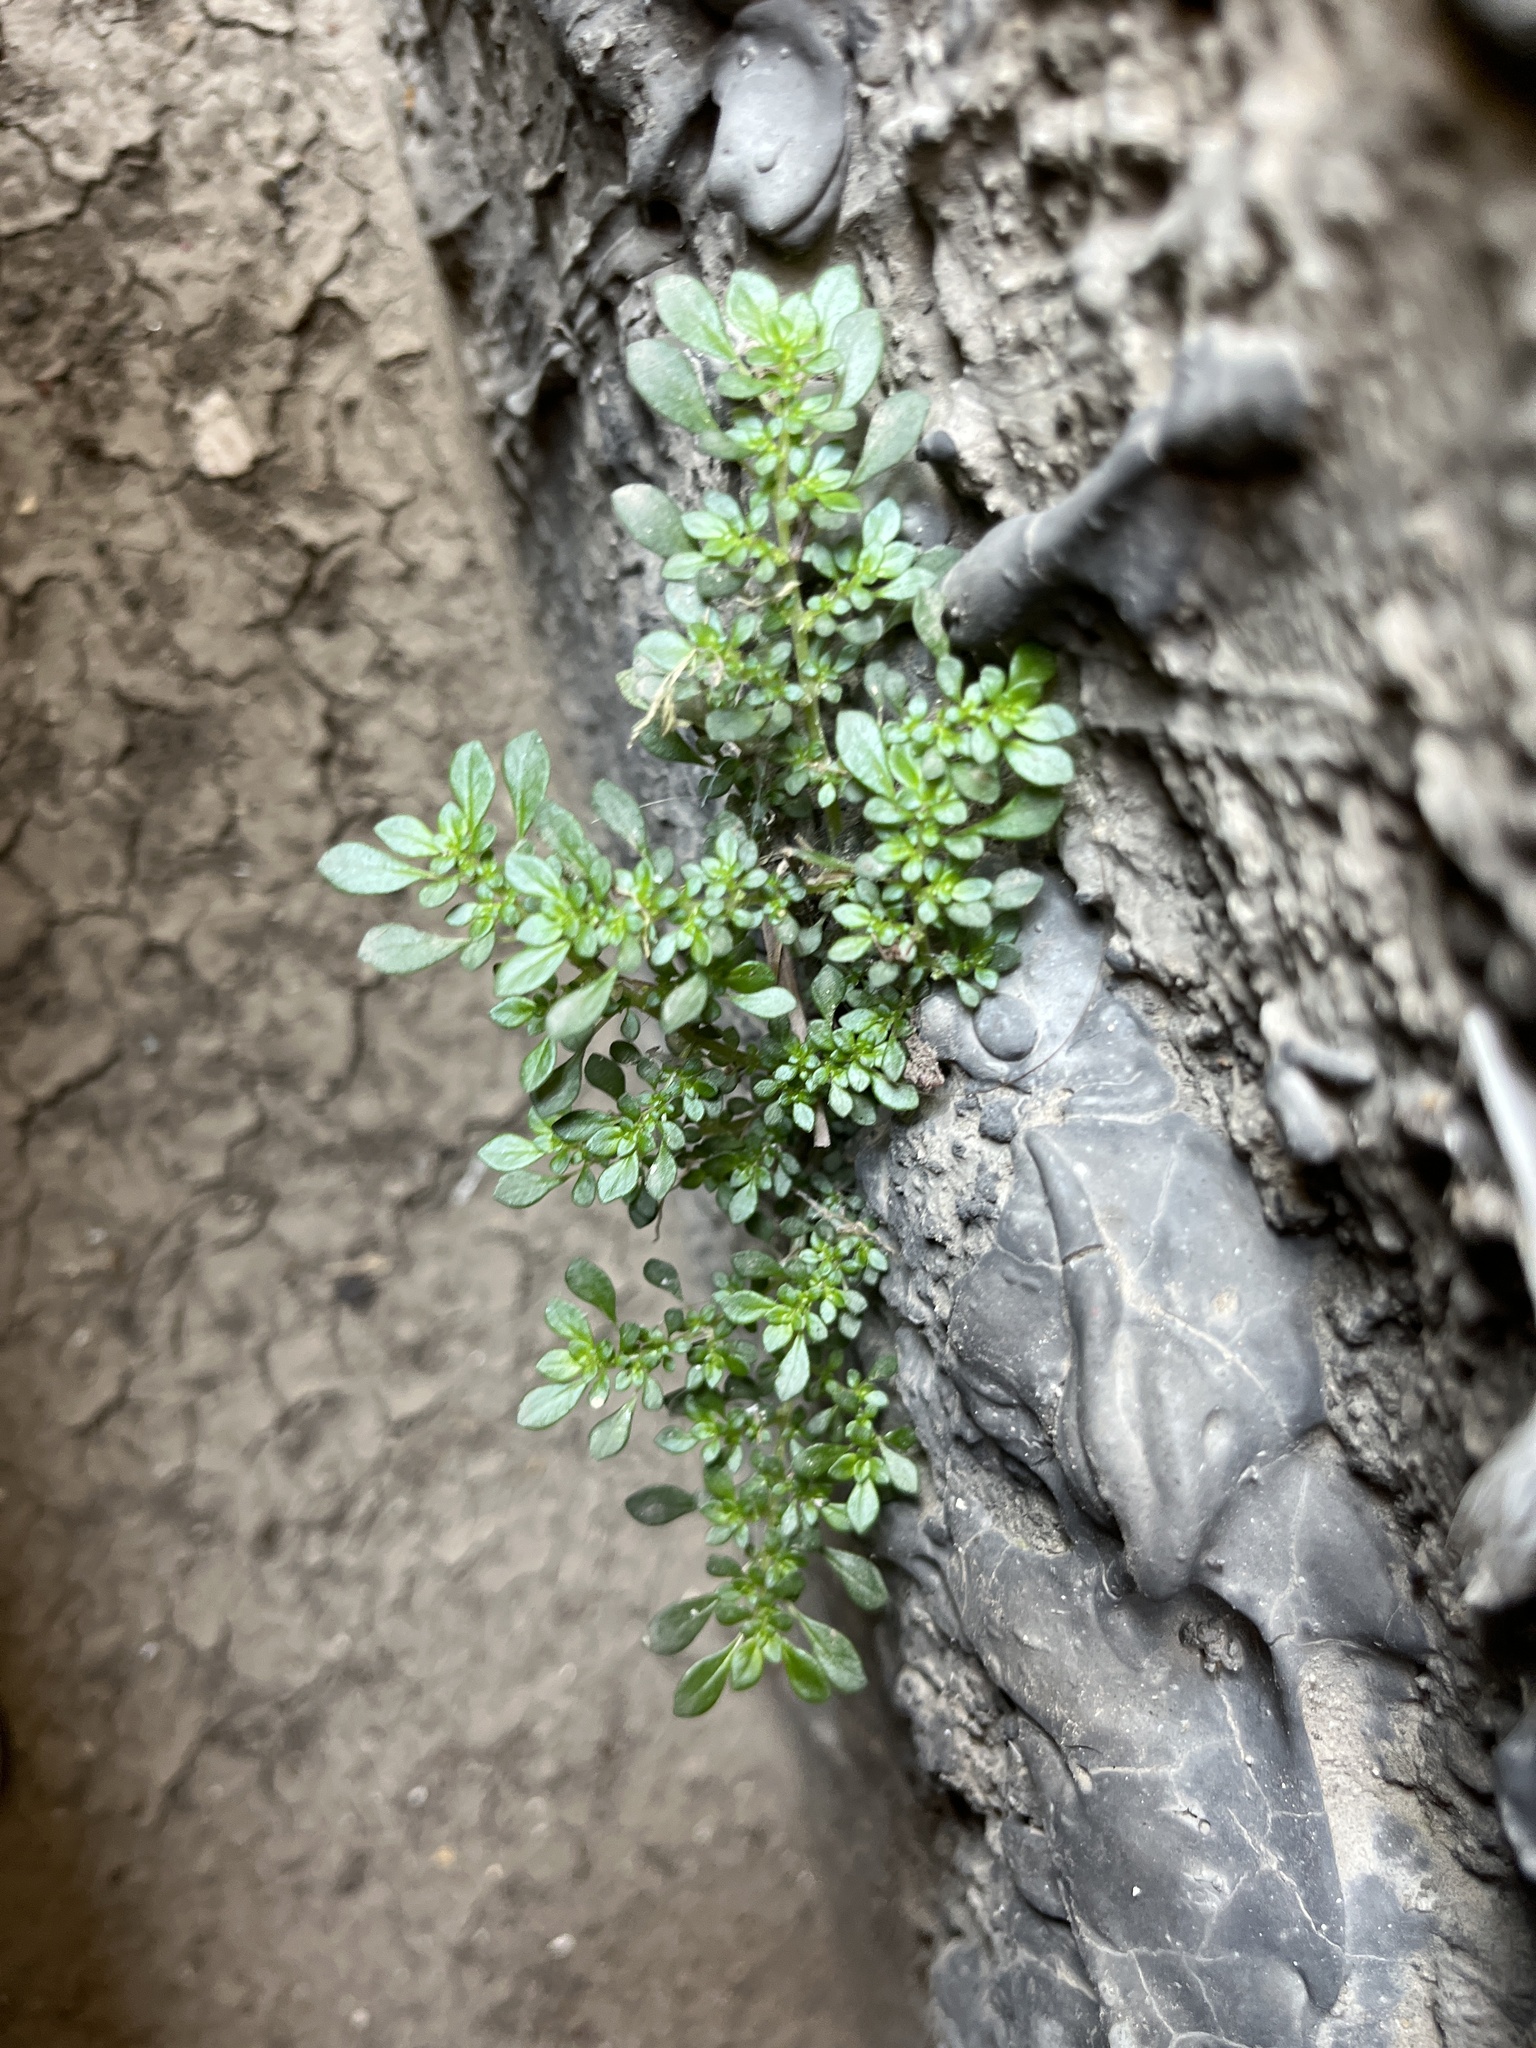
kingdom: Plantae
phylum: Tracheophyta
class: Magnoliopsida
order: Rosales
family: Urticaceae
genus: Pilea
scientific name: Pilea microphylla
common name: Artillery-plant
